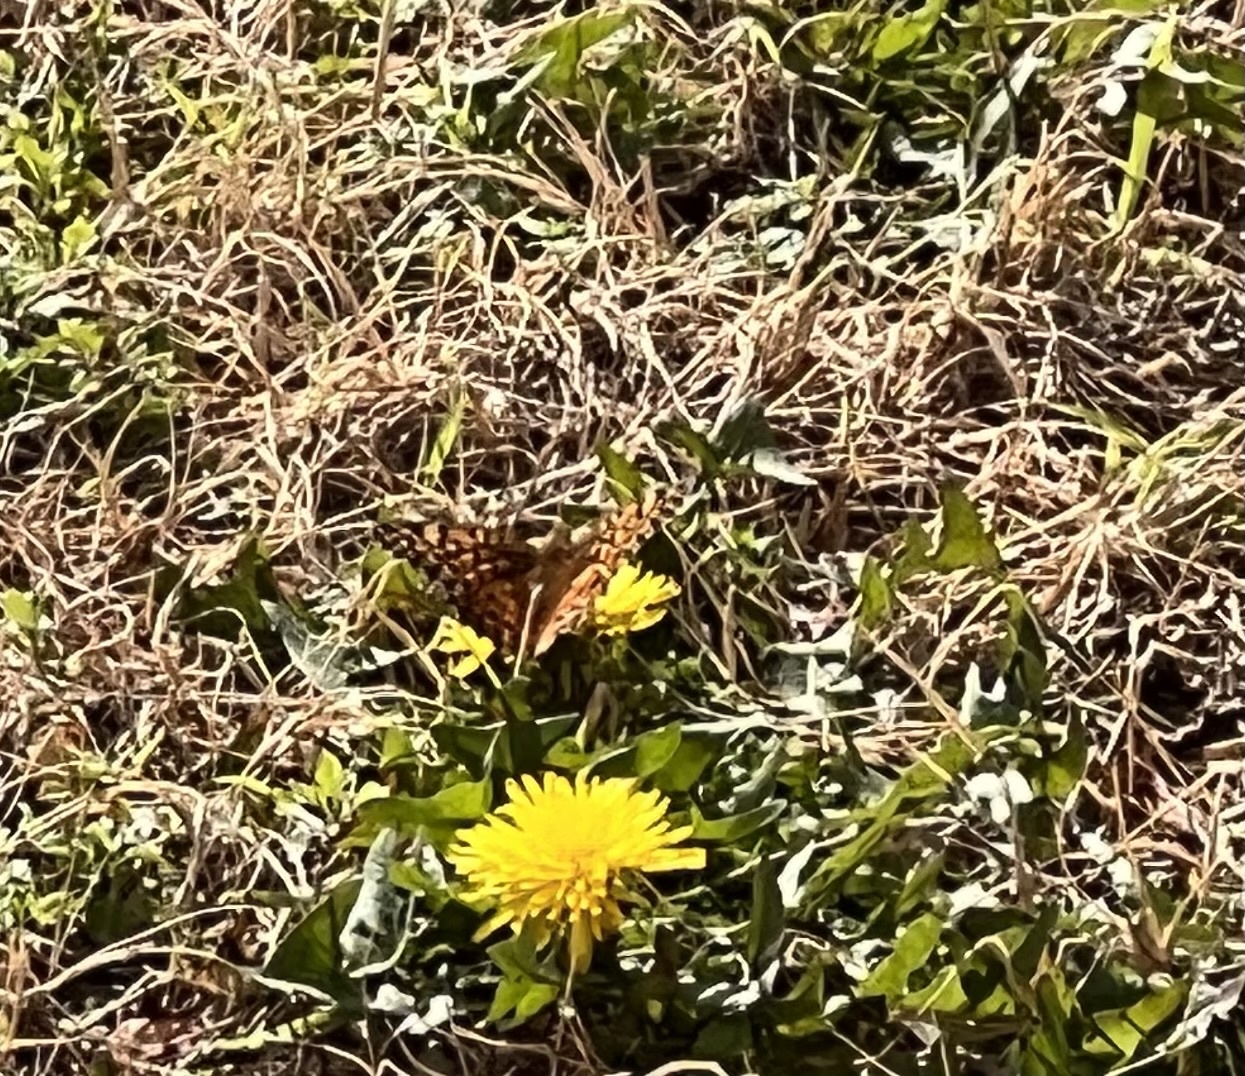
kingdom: Animalia
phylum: Arthropoda
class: Insecta
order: Lepidoptera
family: Nymphalidae
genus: Euptoieta
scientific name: Euptoieta claudia
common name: Variegated fritillary
